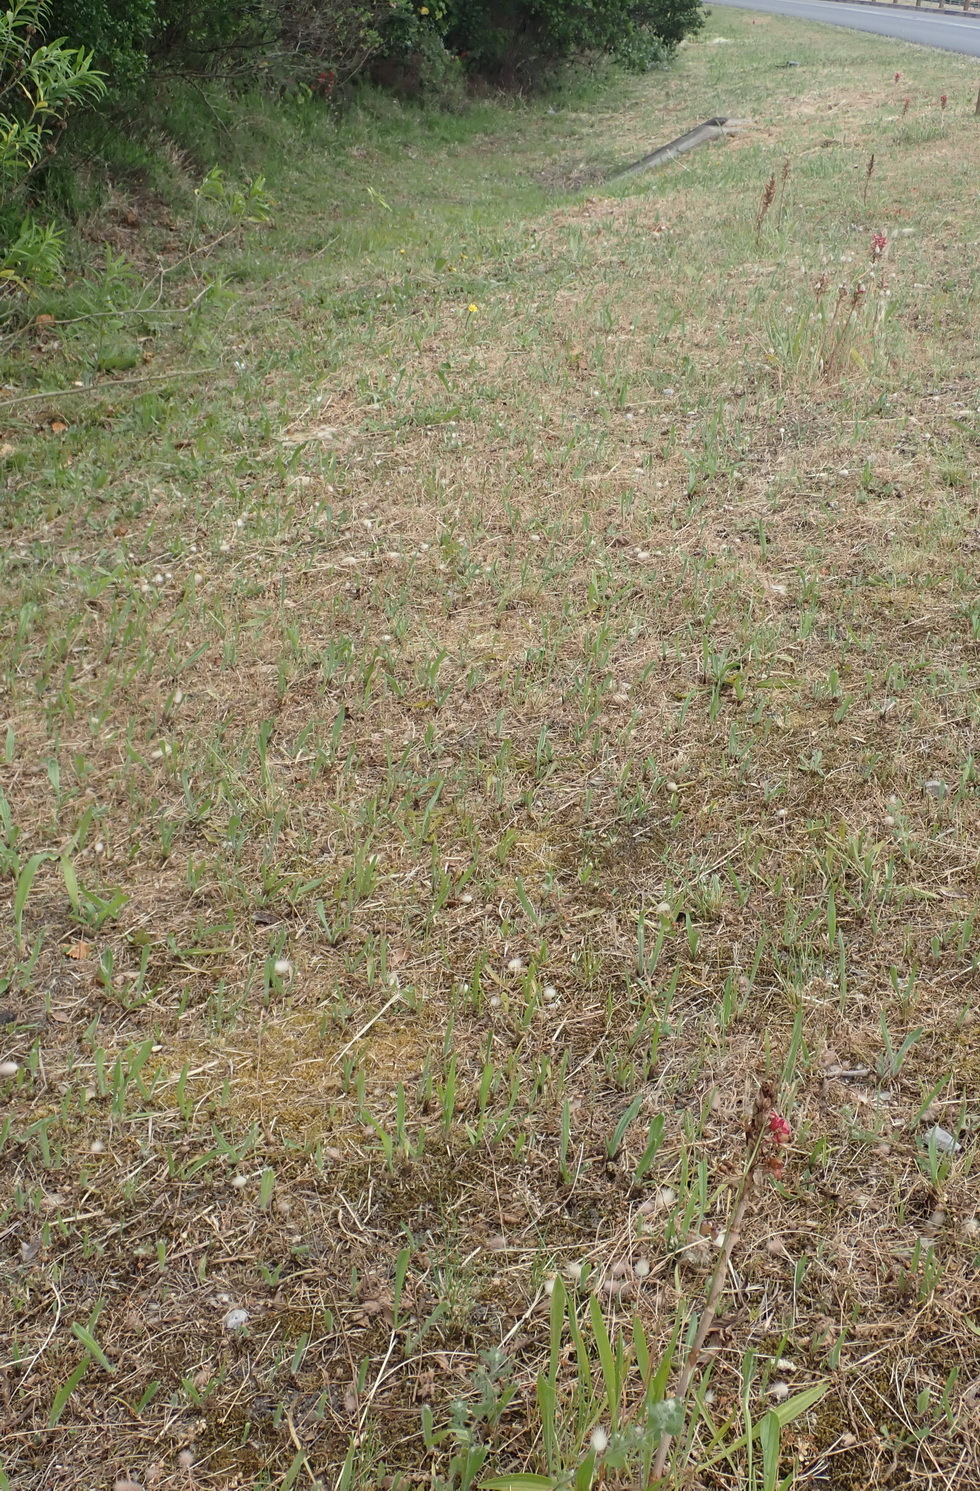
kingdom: Plantae
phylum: Tracheophyta
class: Liliopsida
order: Asparagales
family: Orchidaceae
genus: Satyrium
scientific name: Satyrium princeps
